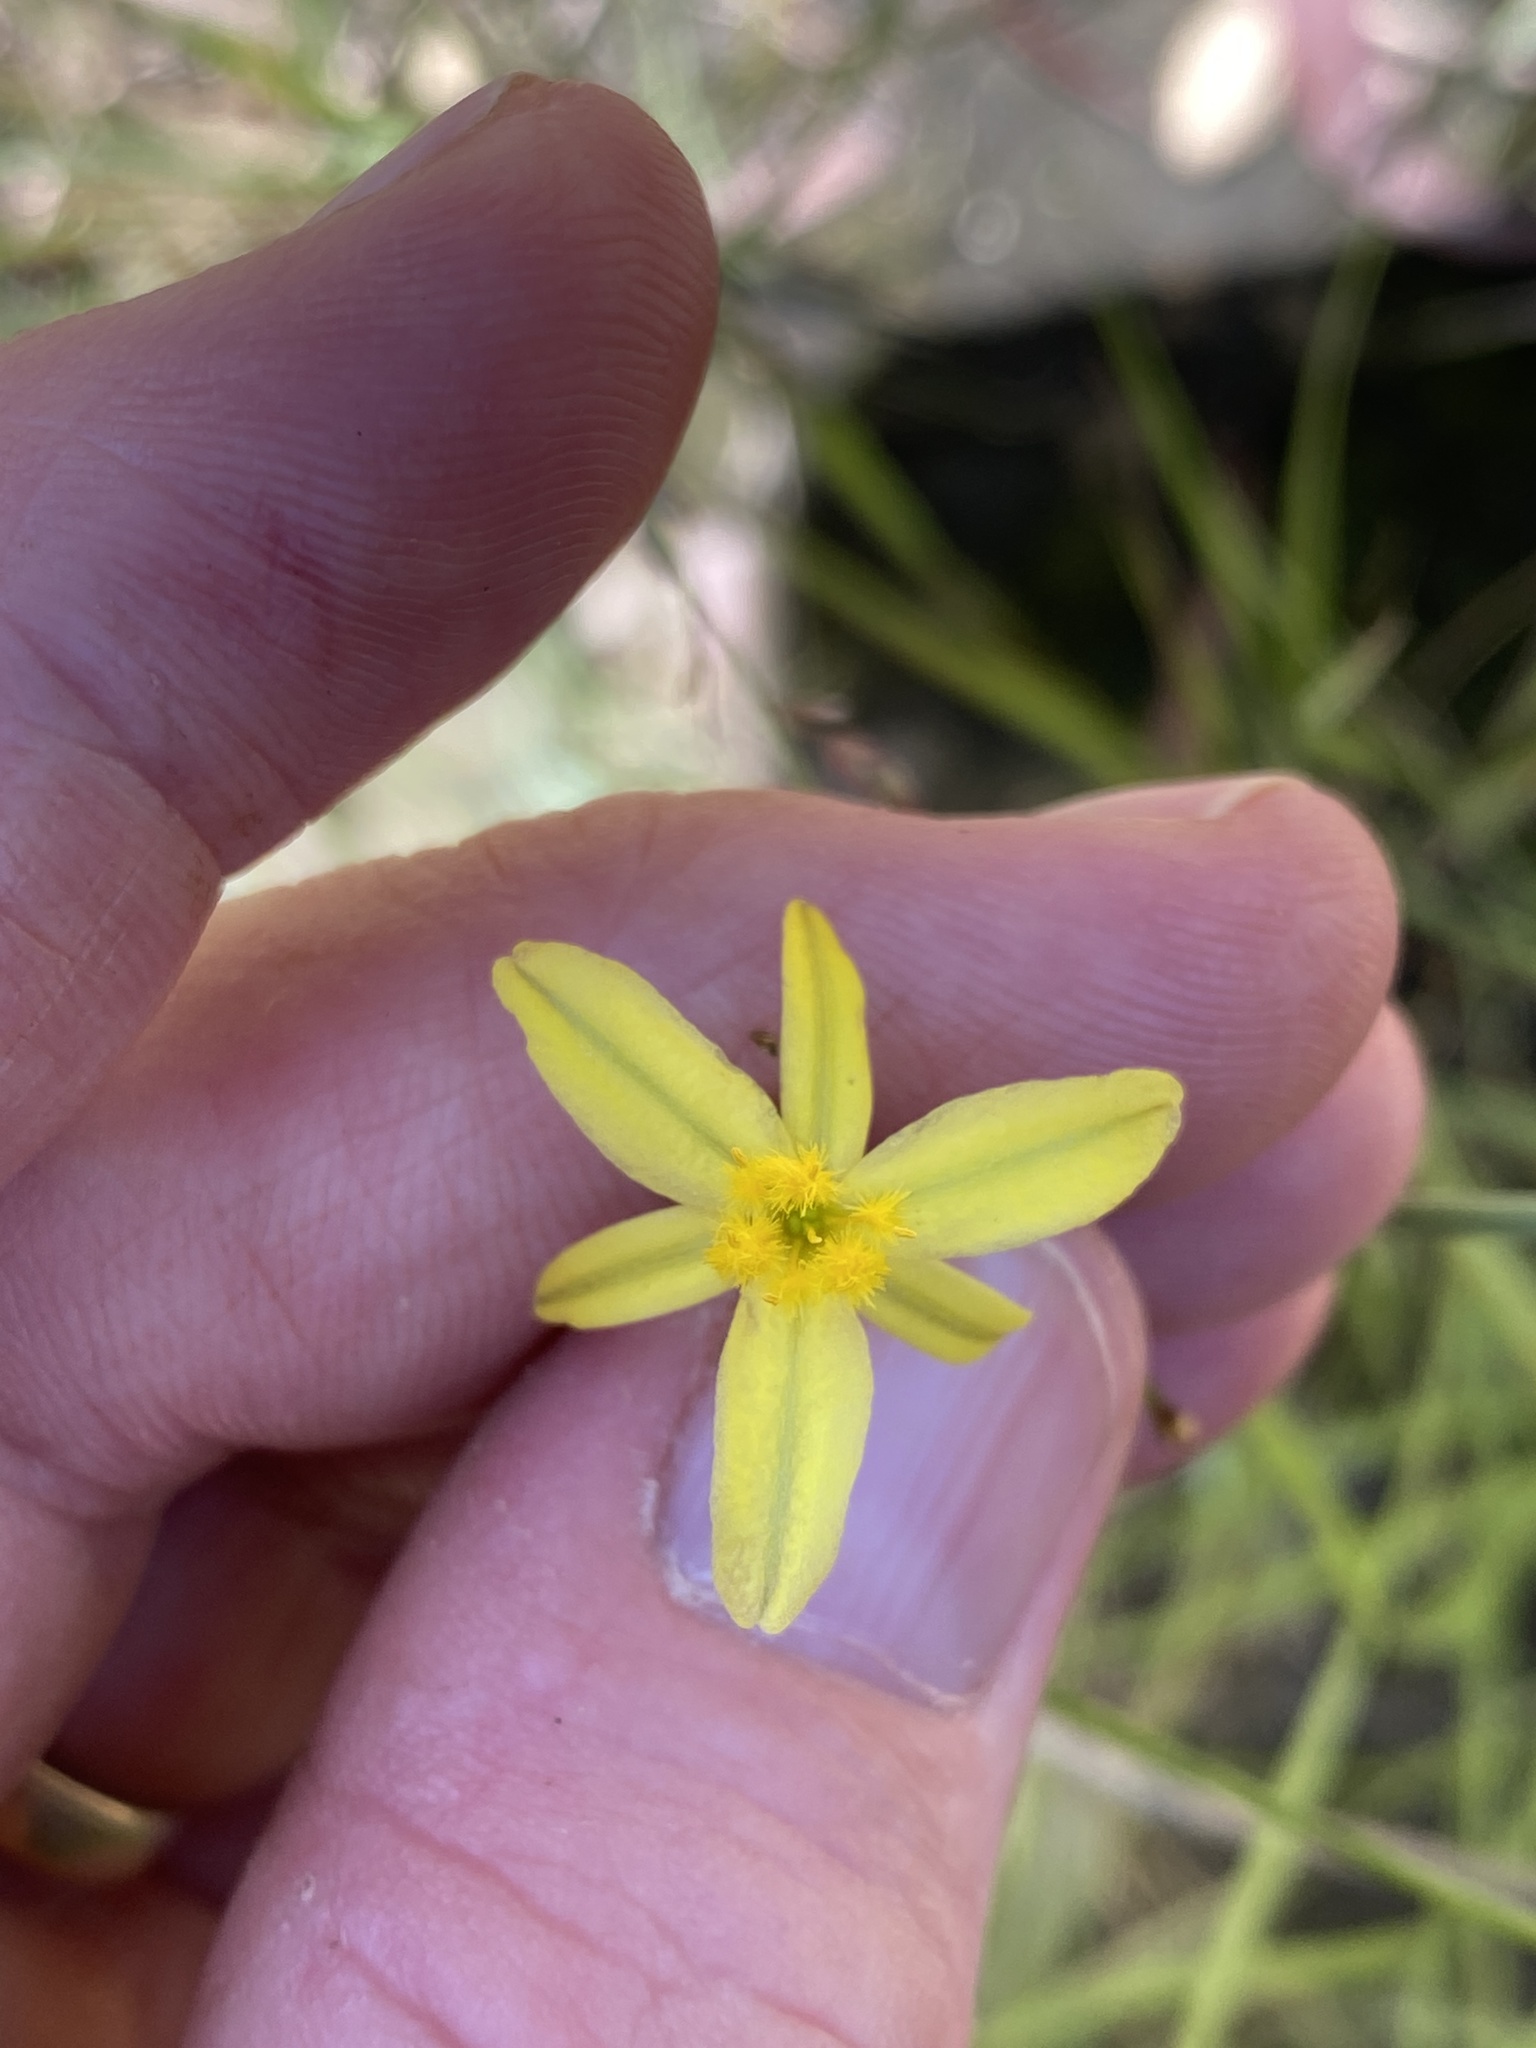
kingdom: Plantae
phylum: Tracheophyta
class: Liliopsida
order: Asparagales
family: Asphodelaceae
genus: Tricoryne
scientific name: Tricoryne elatior
